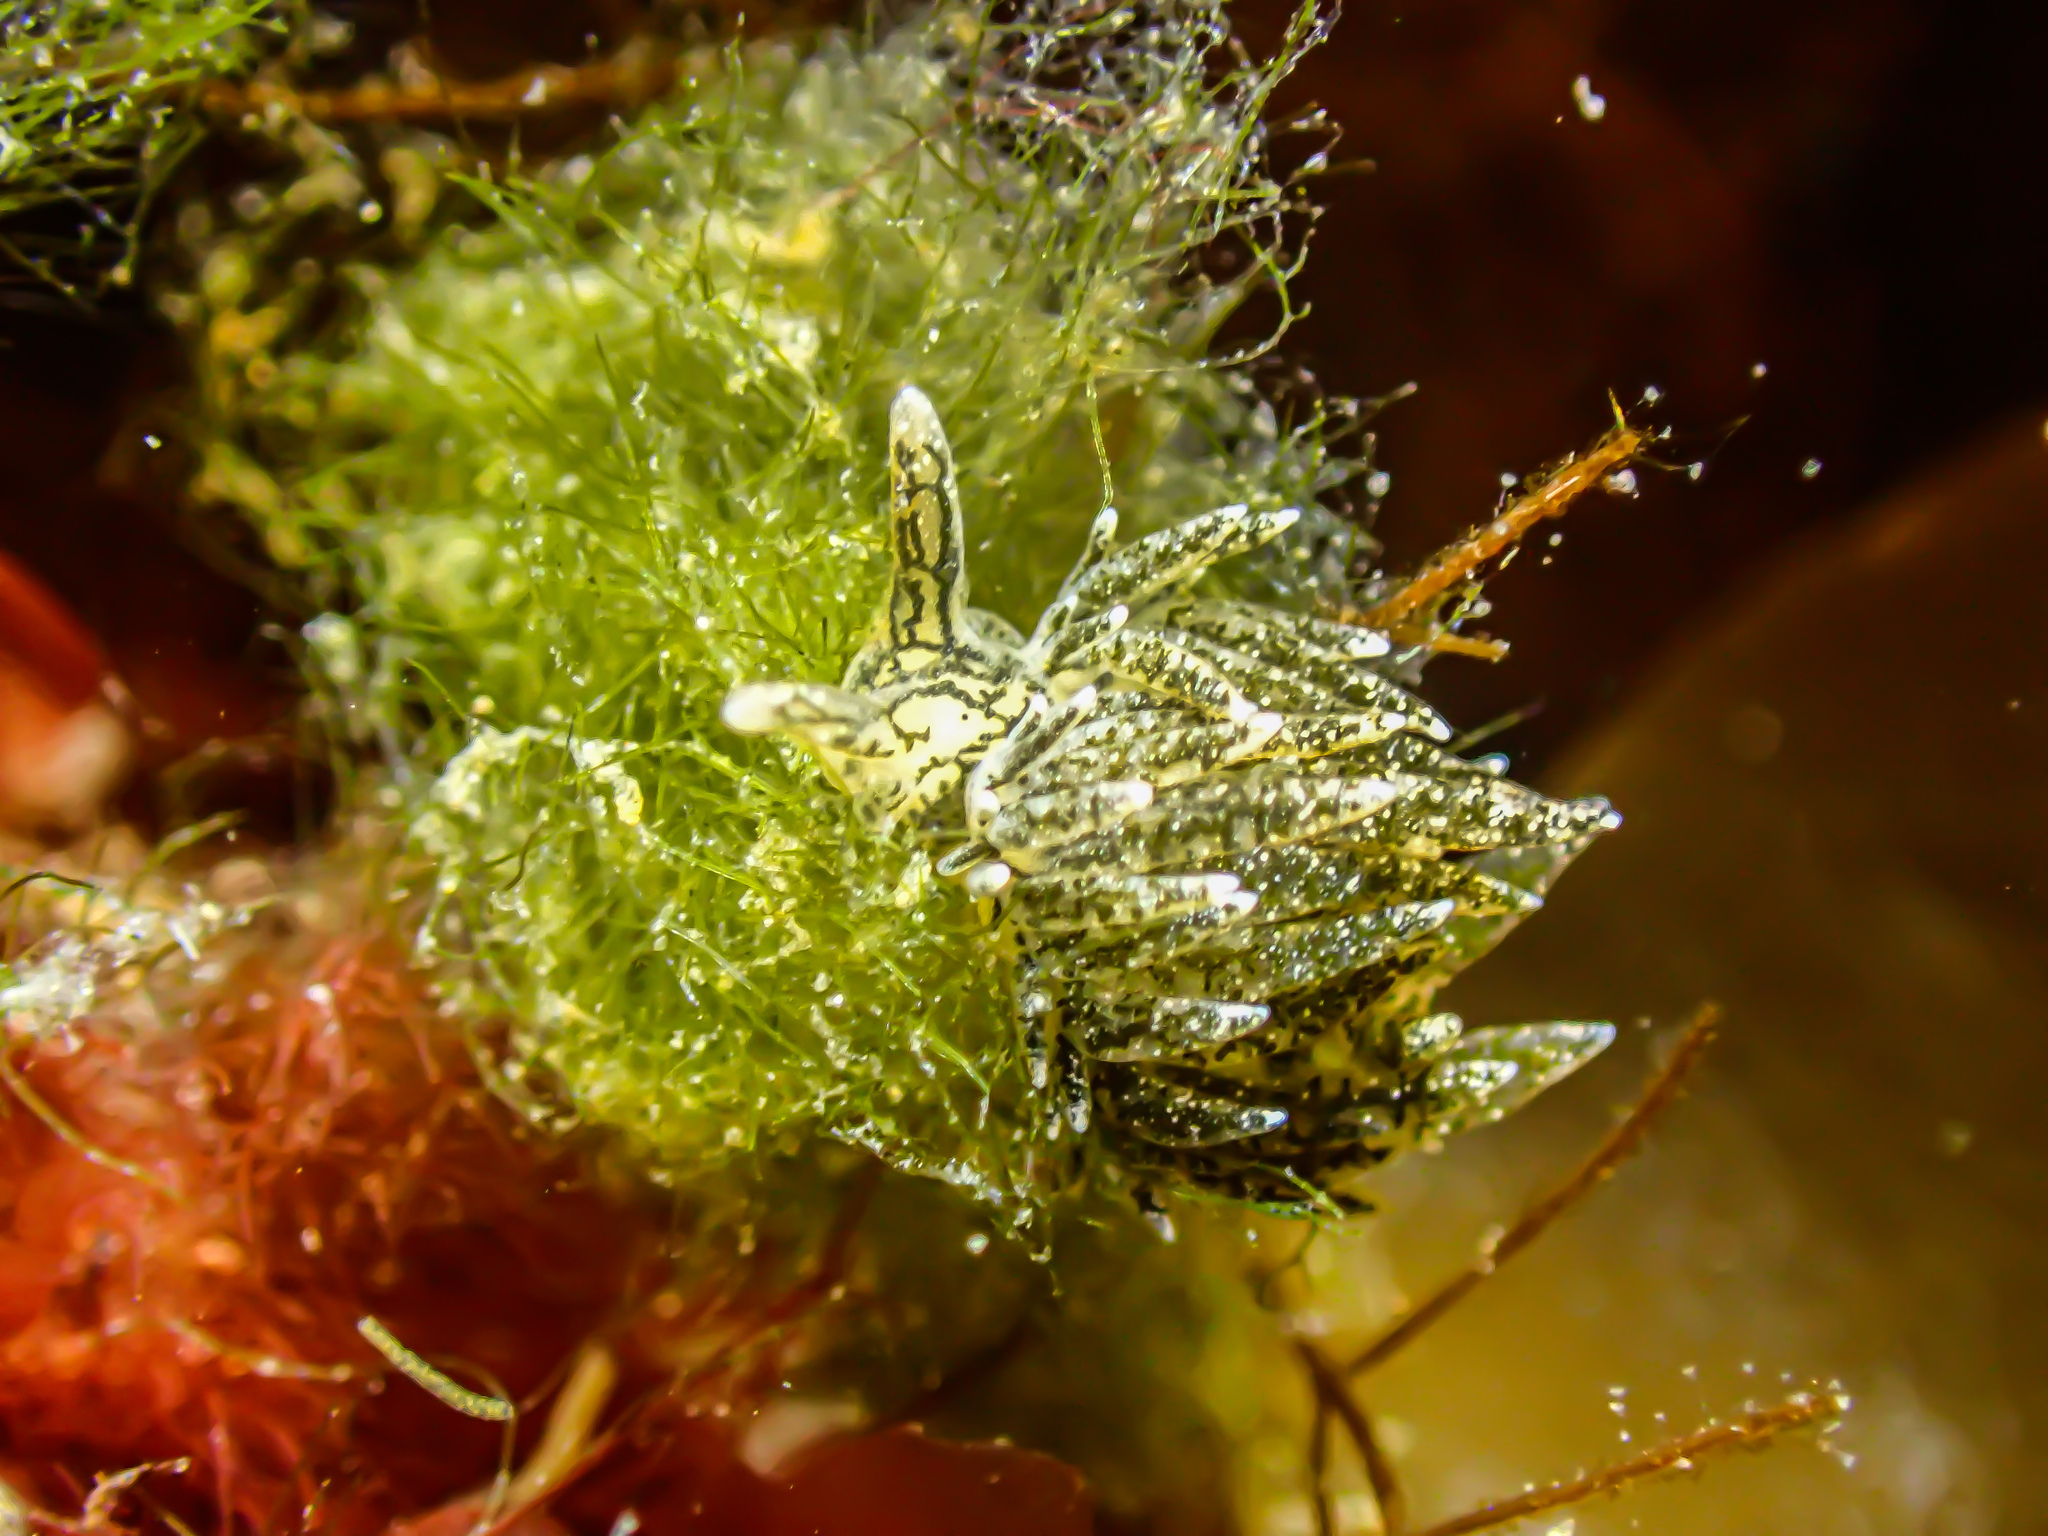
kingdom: Animalia
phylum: Mollusca
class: Gastropoda
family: Limapontiidae
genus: Placida
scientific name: Placida dendritica
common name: Dendritic nudibranch
